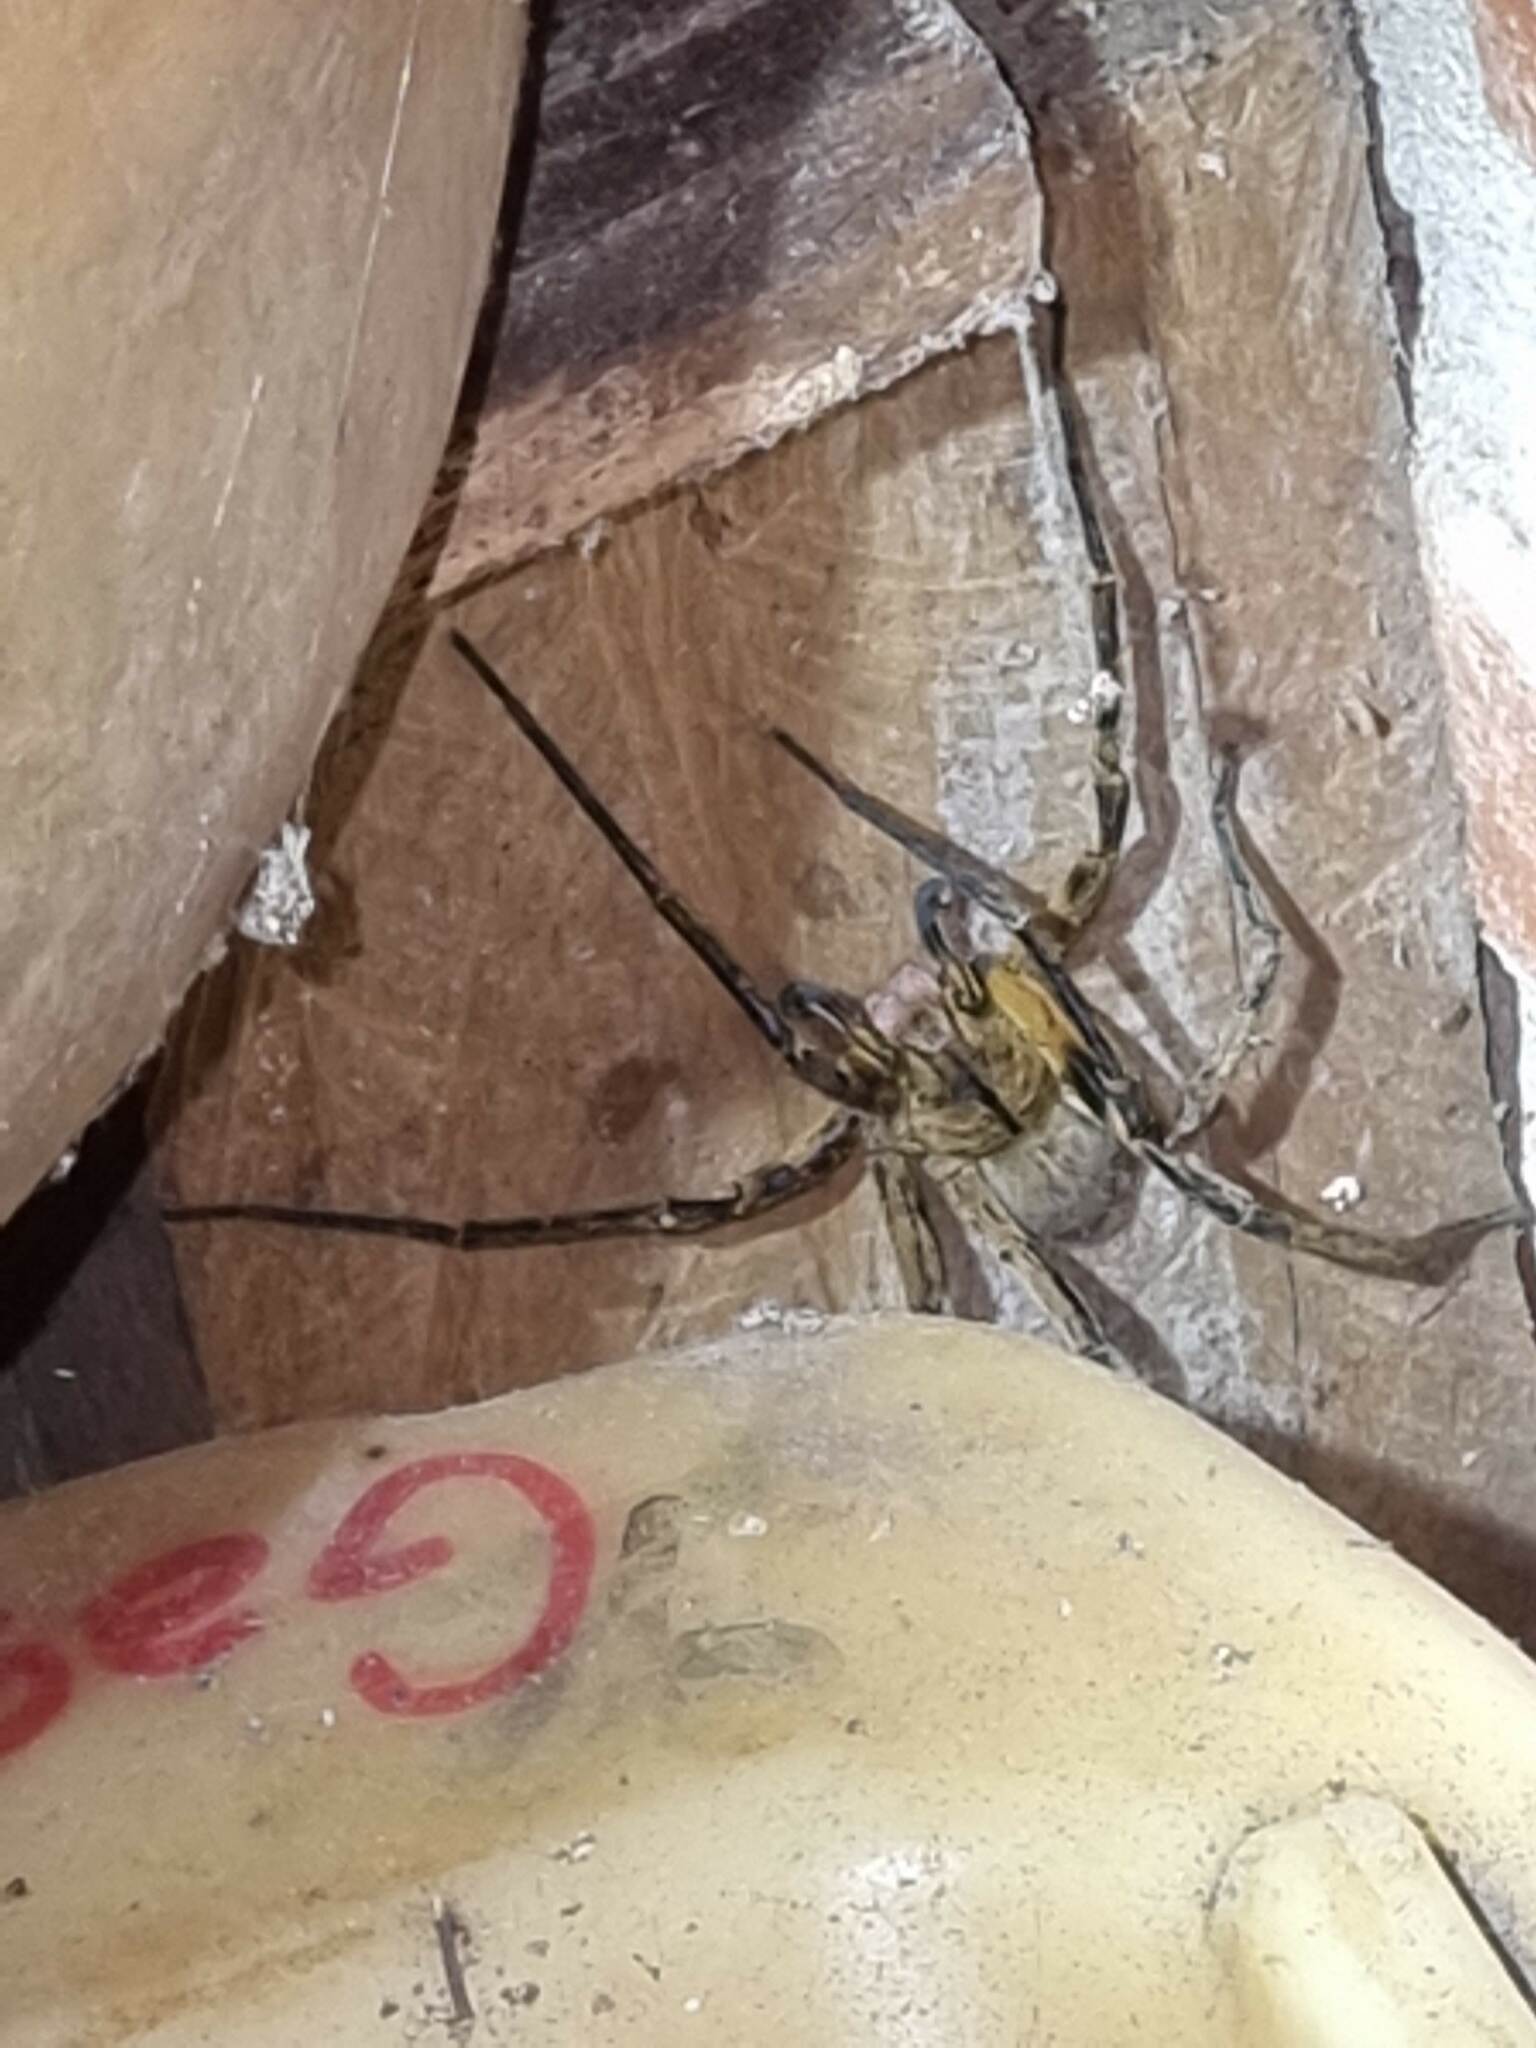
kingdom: Animalia
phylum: Arthropoda
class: Arachnida
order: Araneae
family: Ctenidae
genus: Phoneutria
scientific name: Phoneutria nigriventer
